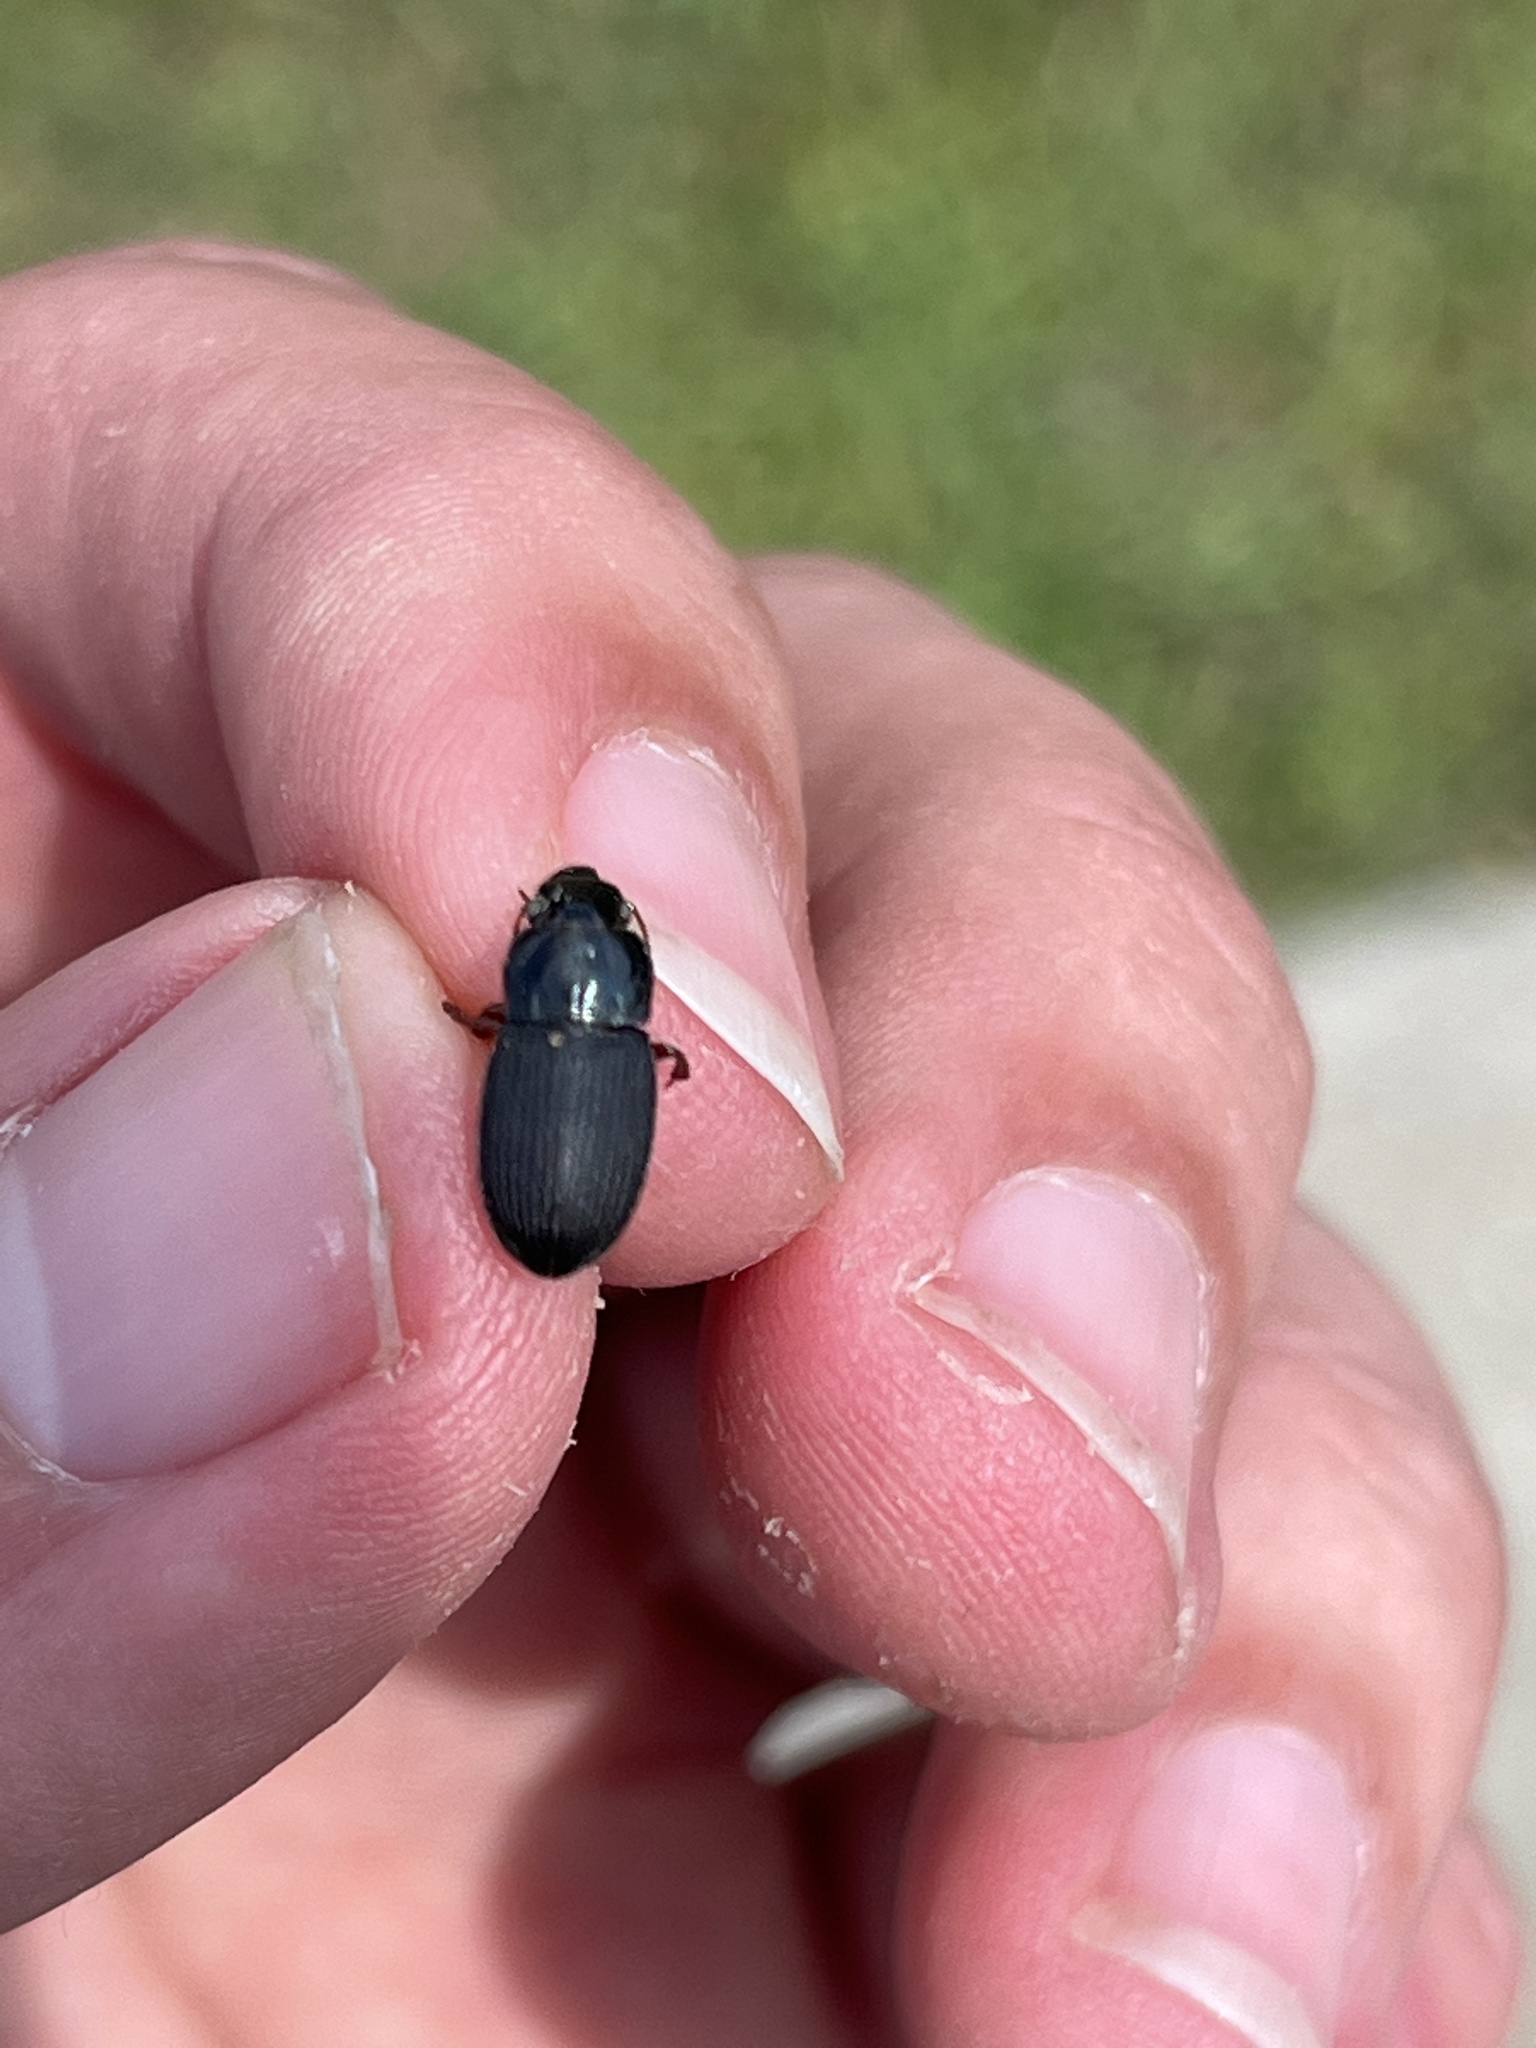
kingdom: Animalia
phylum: Arthropoda
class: Insecta
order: Coleoptera
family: Carabidae
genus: Harpalus
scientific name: Harpalus rubripes
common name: Red-legged harp ground beetle
